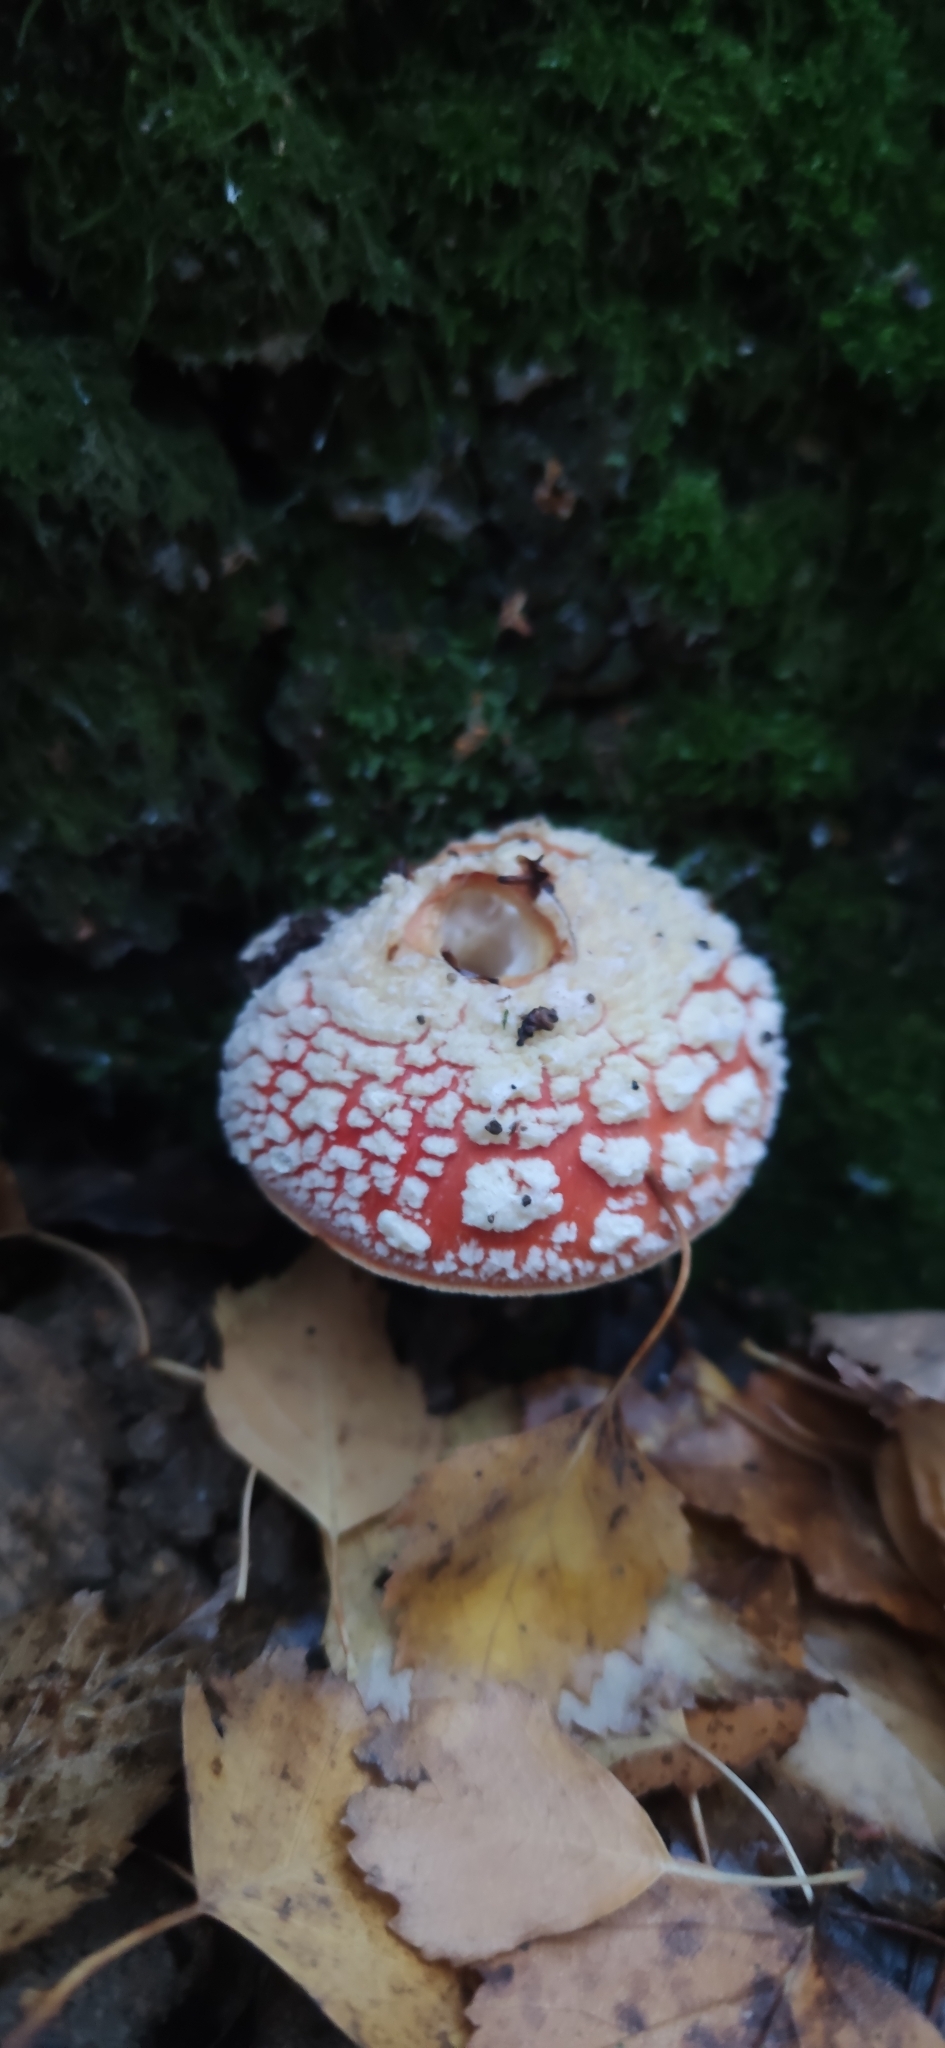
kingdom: Fungi
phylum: Basidiomycota
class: Agaricomycetes
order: Agaricales
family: Amanitaceae
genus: Amanita
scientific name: Amanita muscaria
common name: Fly agaric
